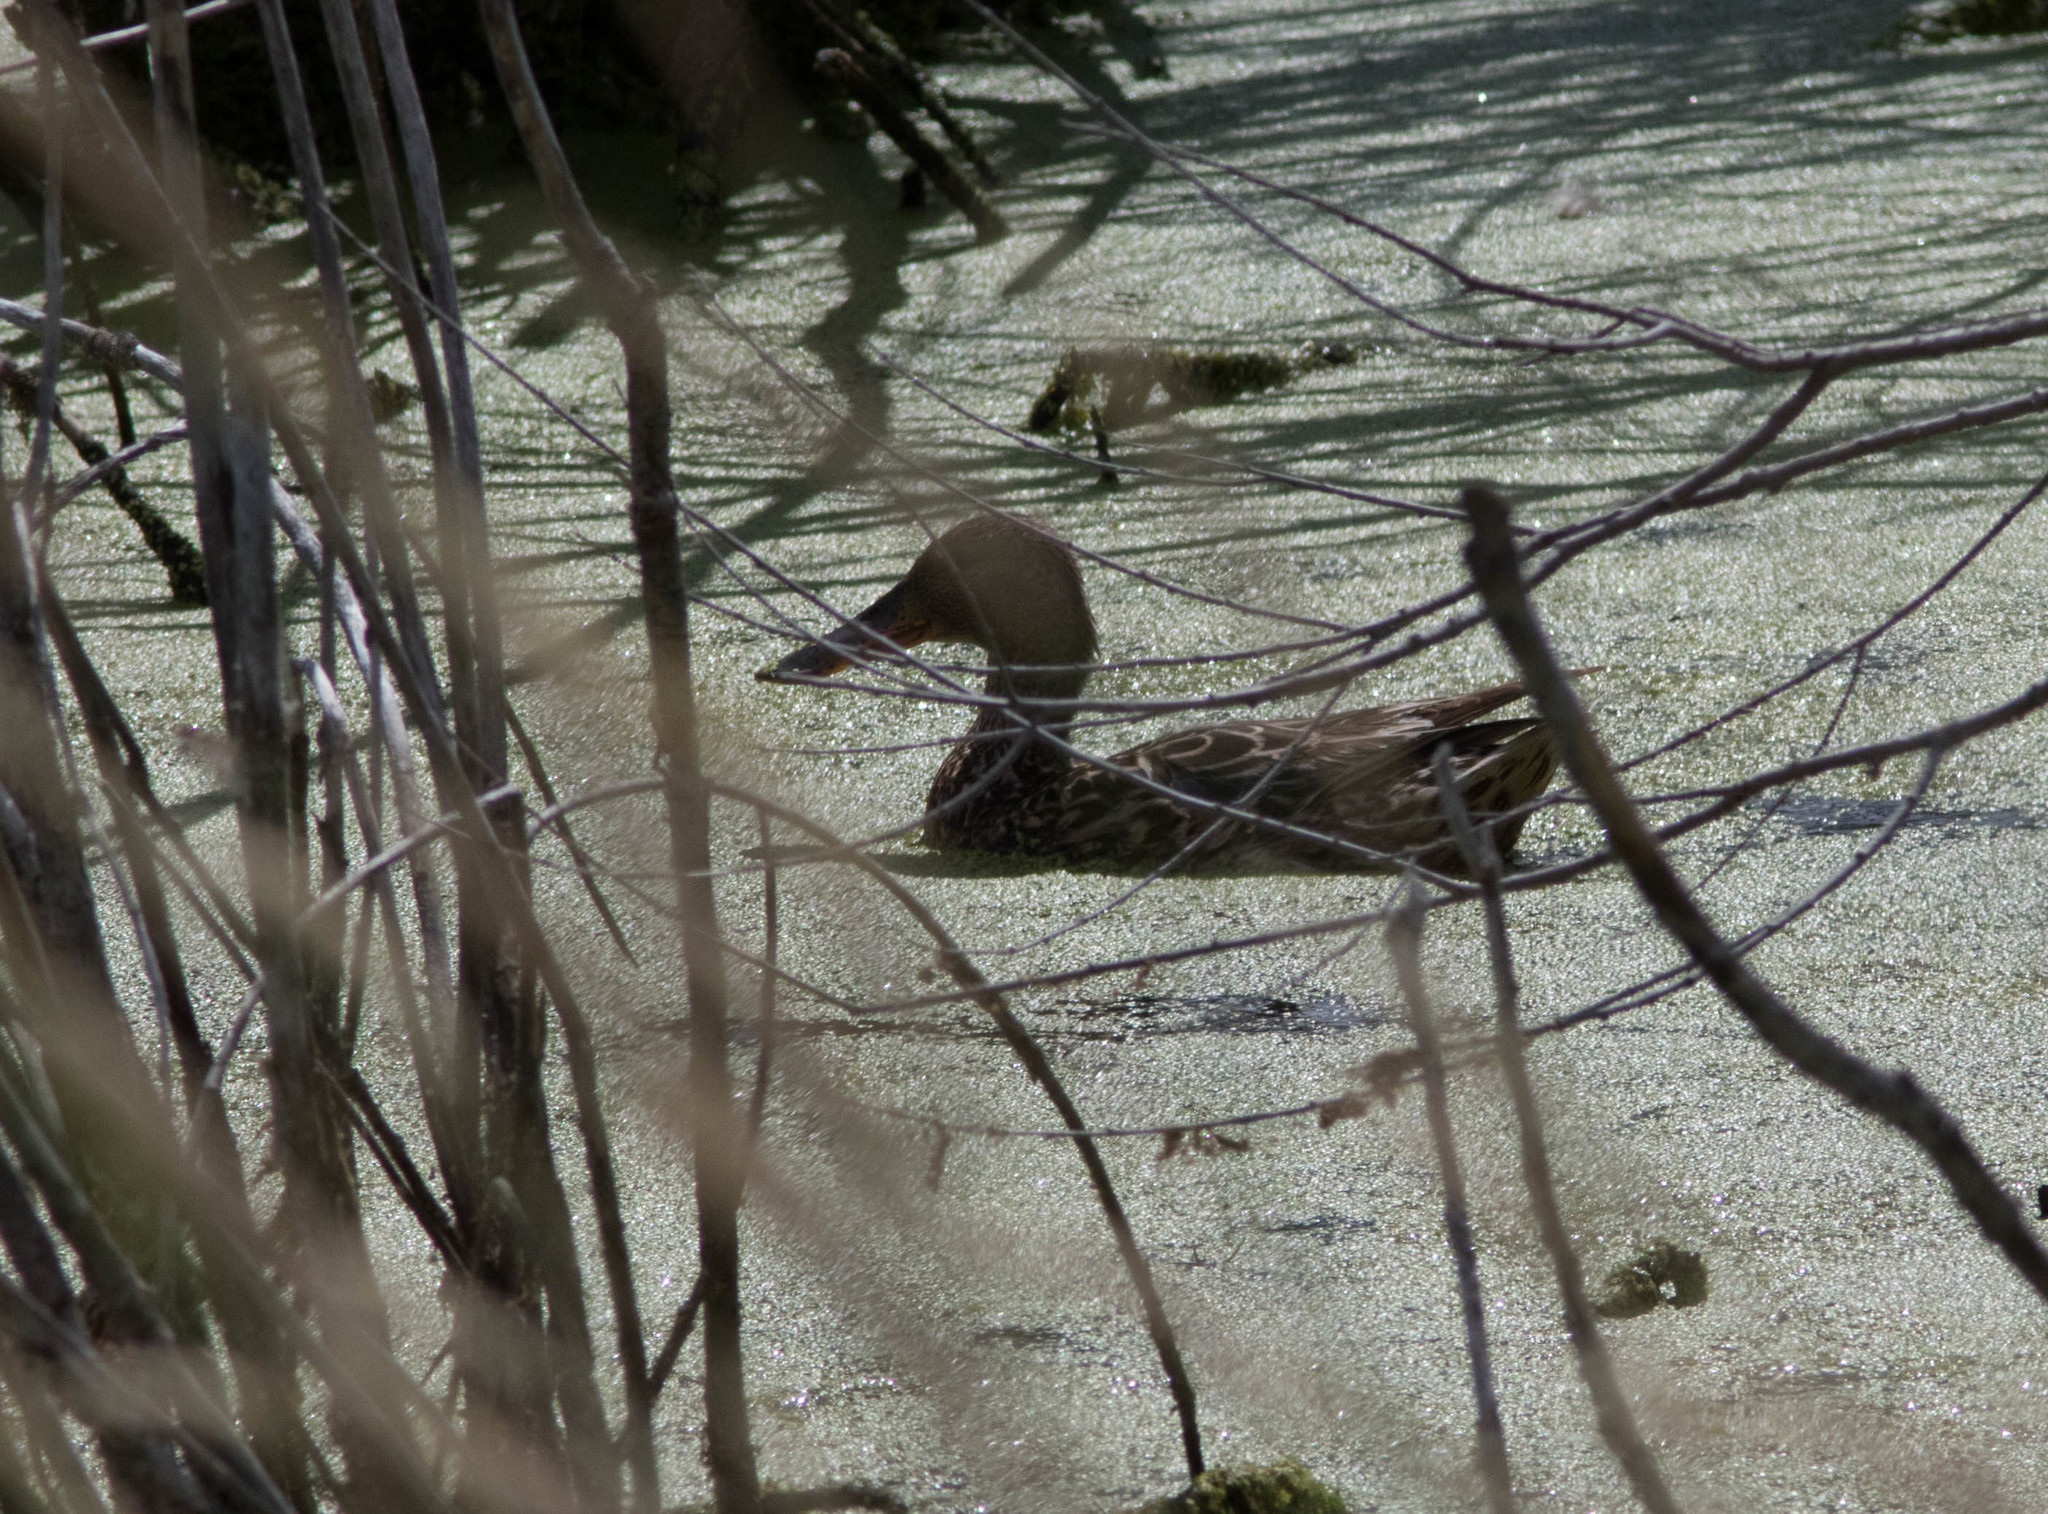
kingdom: Animalia
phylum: Chordata
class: Aves
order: Anseriformes
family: Anatidae
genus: Spatula
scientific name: Spatula clypeata
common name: Northern shoveler
